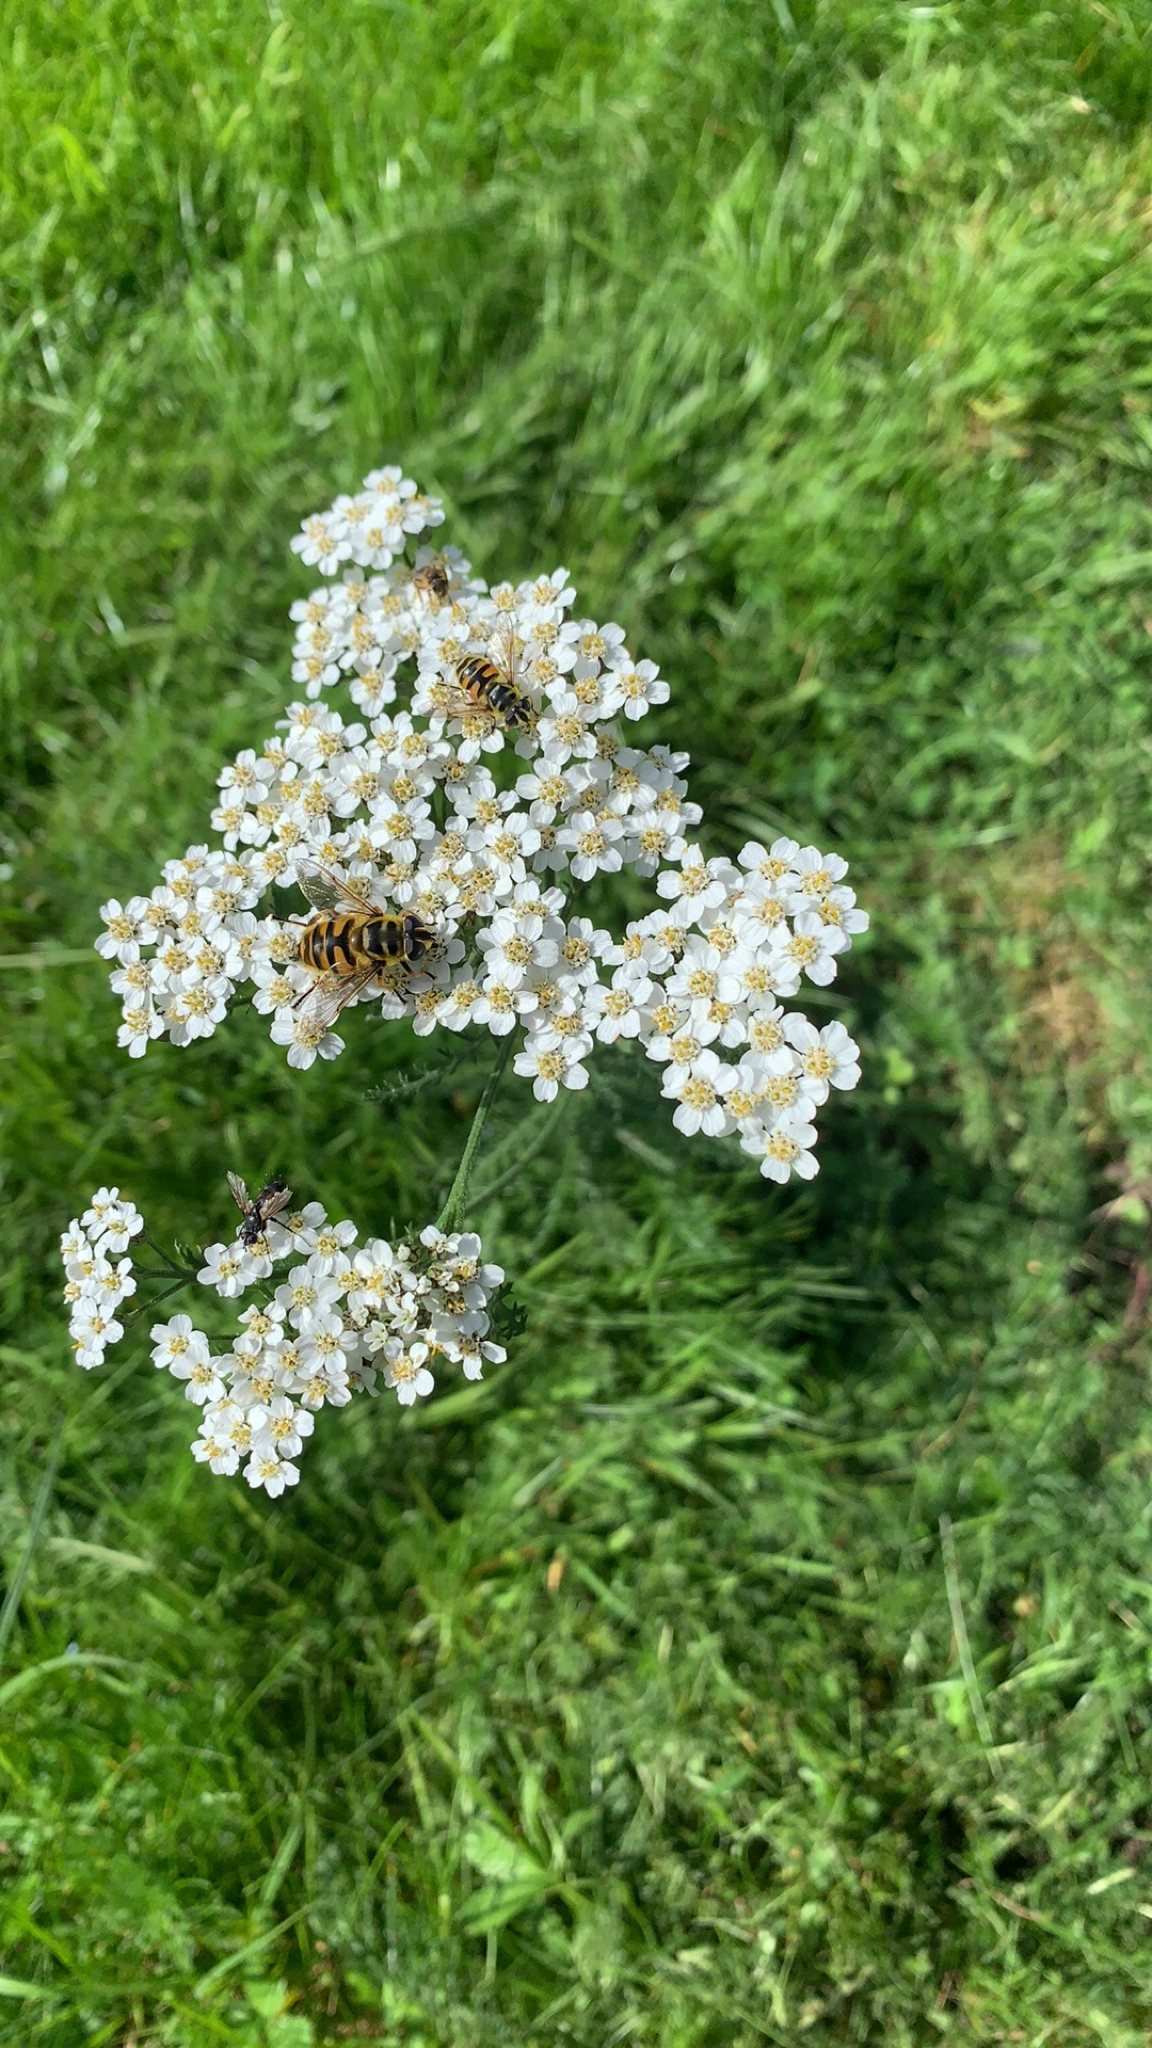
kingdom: Animalia
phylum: Arthropoda
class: Insecta
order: Diptera
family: Syrphidae
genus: Myathropa
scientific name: Myathropa florea
